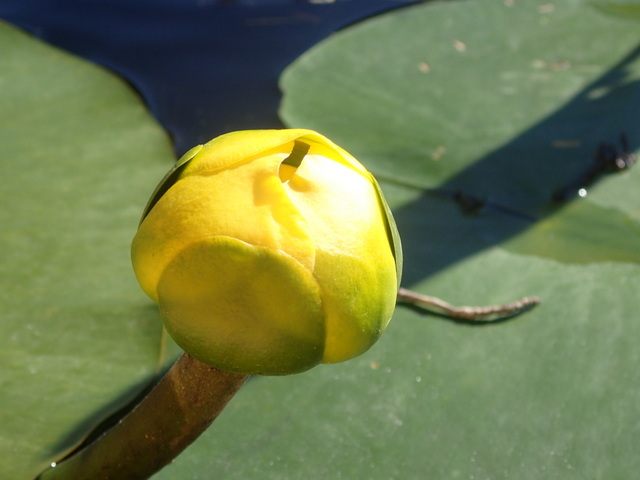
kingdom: Plantae
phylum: Tracheophyta
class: Magnoliopsida
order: Nymphaeales
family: Nymphaeaceae
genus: Nuphar
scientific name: Nuphar advena
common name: Spatter-dock
